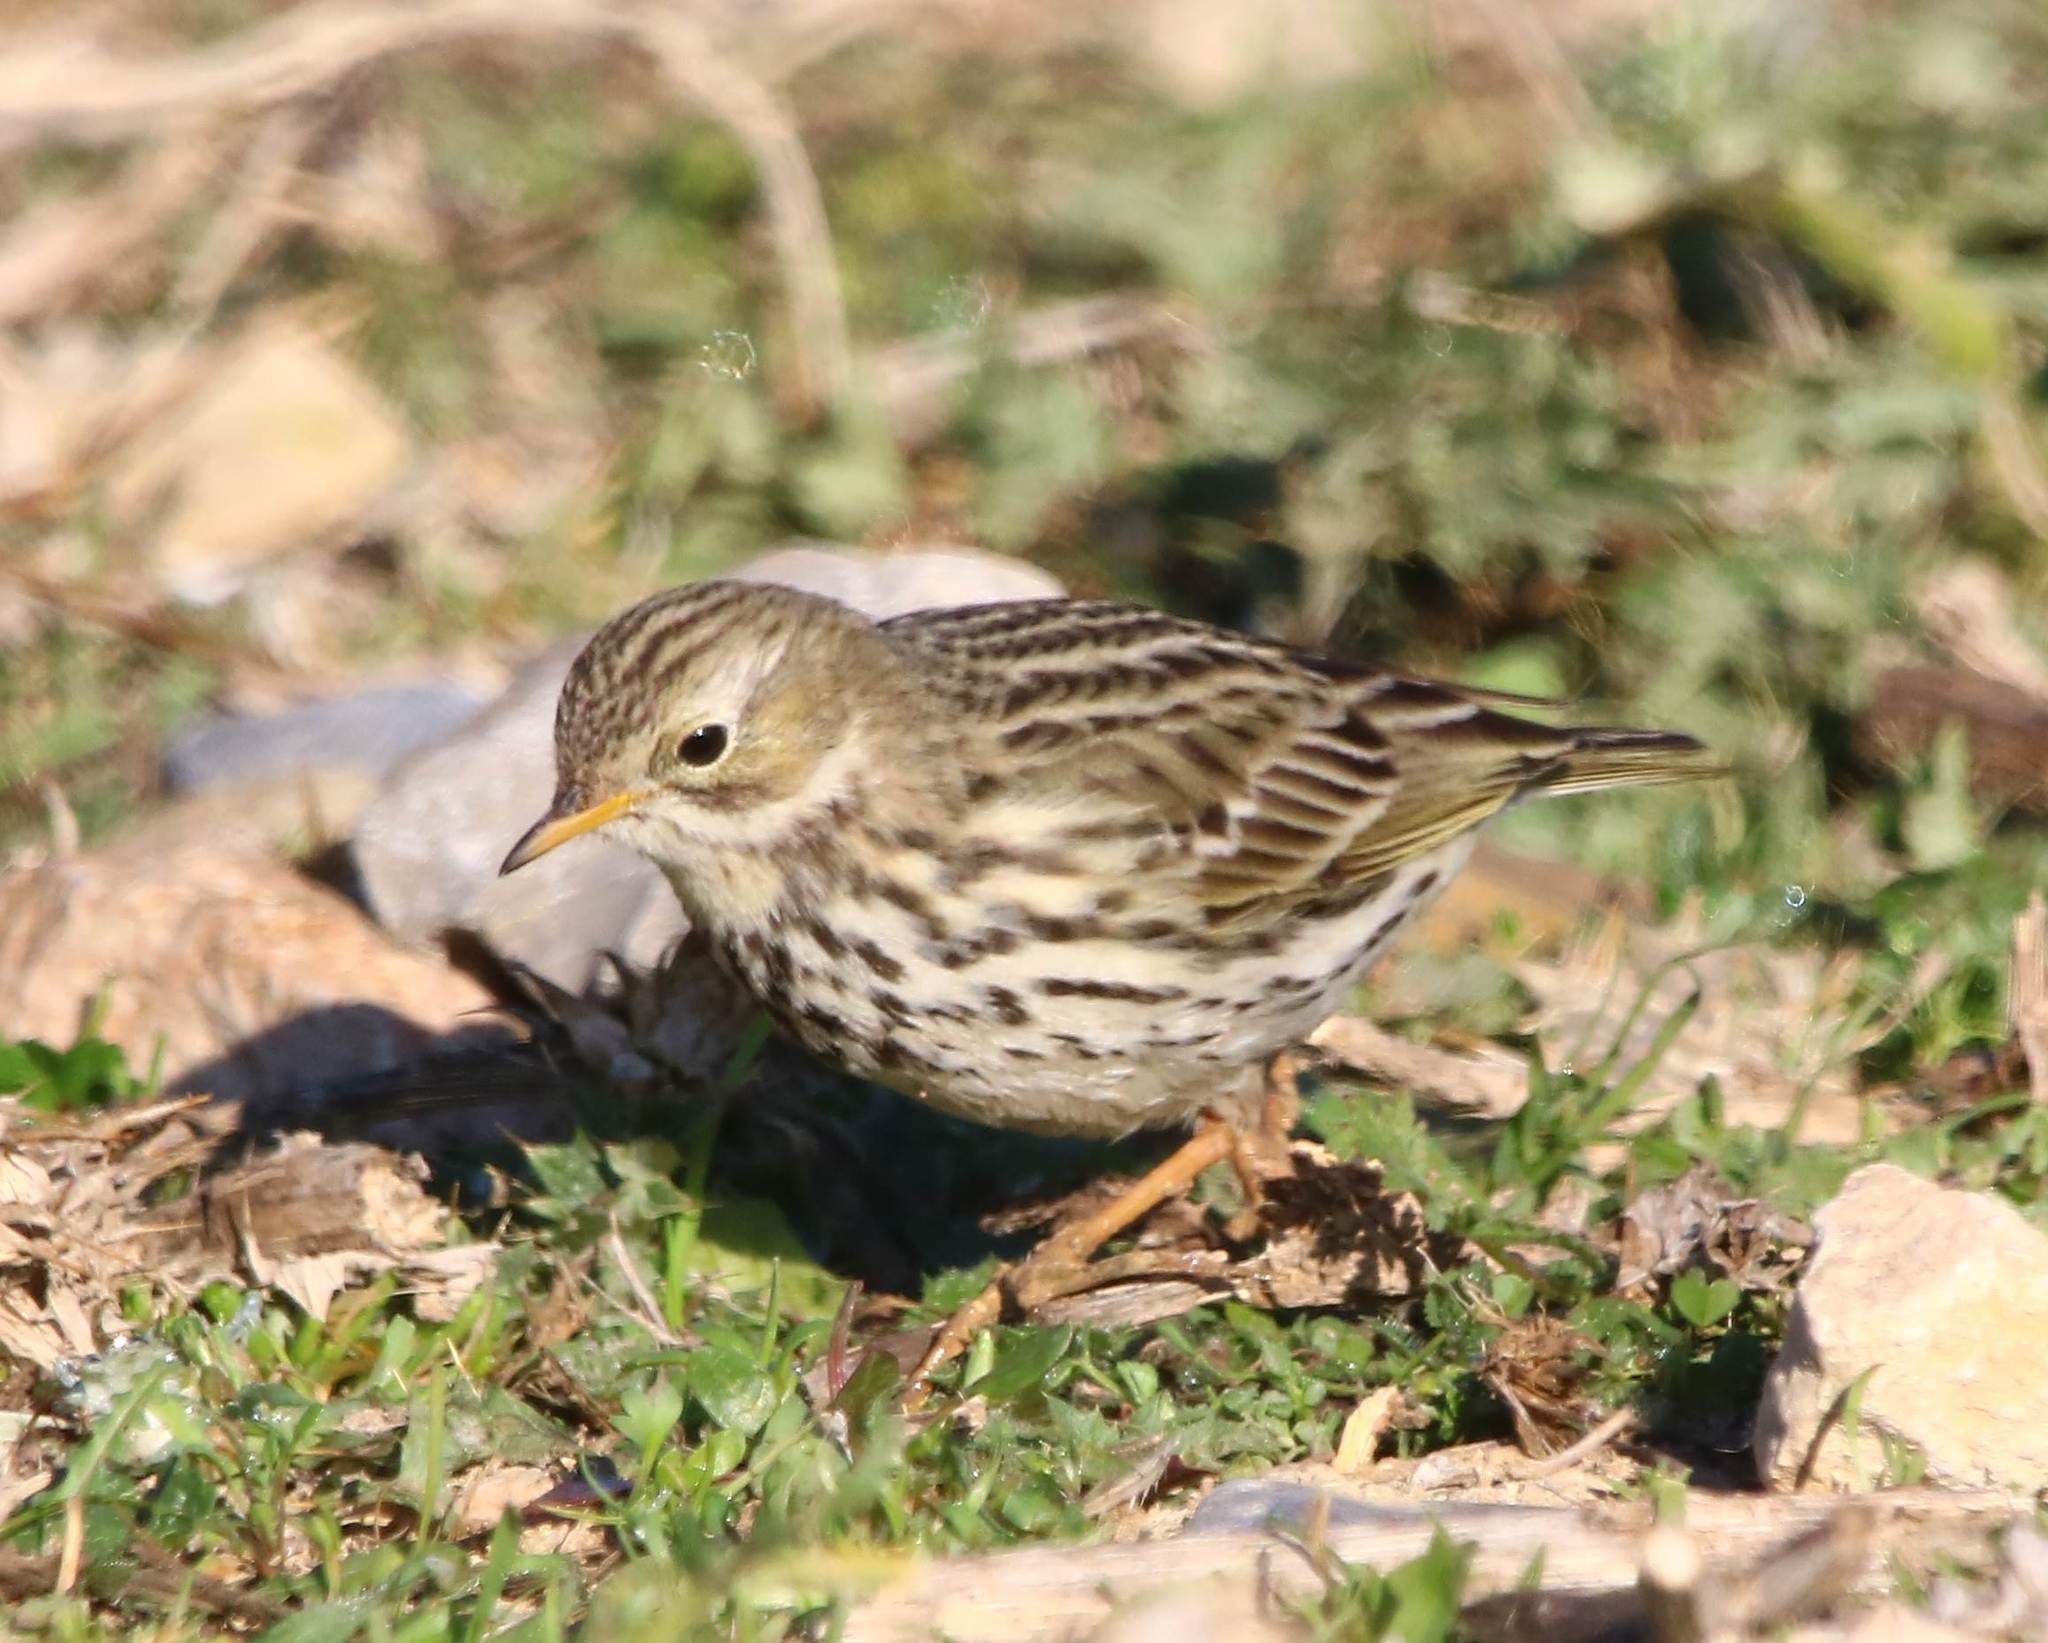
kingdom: Animalia
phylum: Chordata
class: Aves
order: Passeriformes
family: Motacillidae
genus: Anthus
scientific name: Anthus pratensis
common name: Meadow pipit
